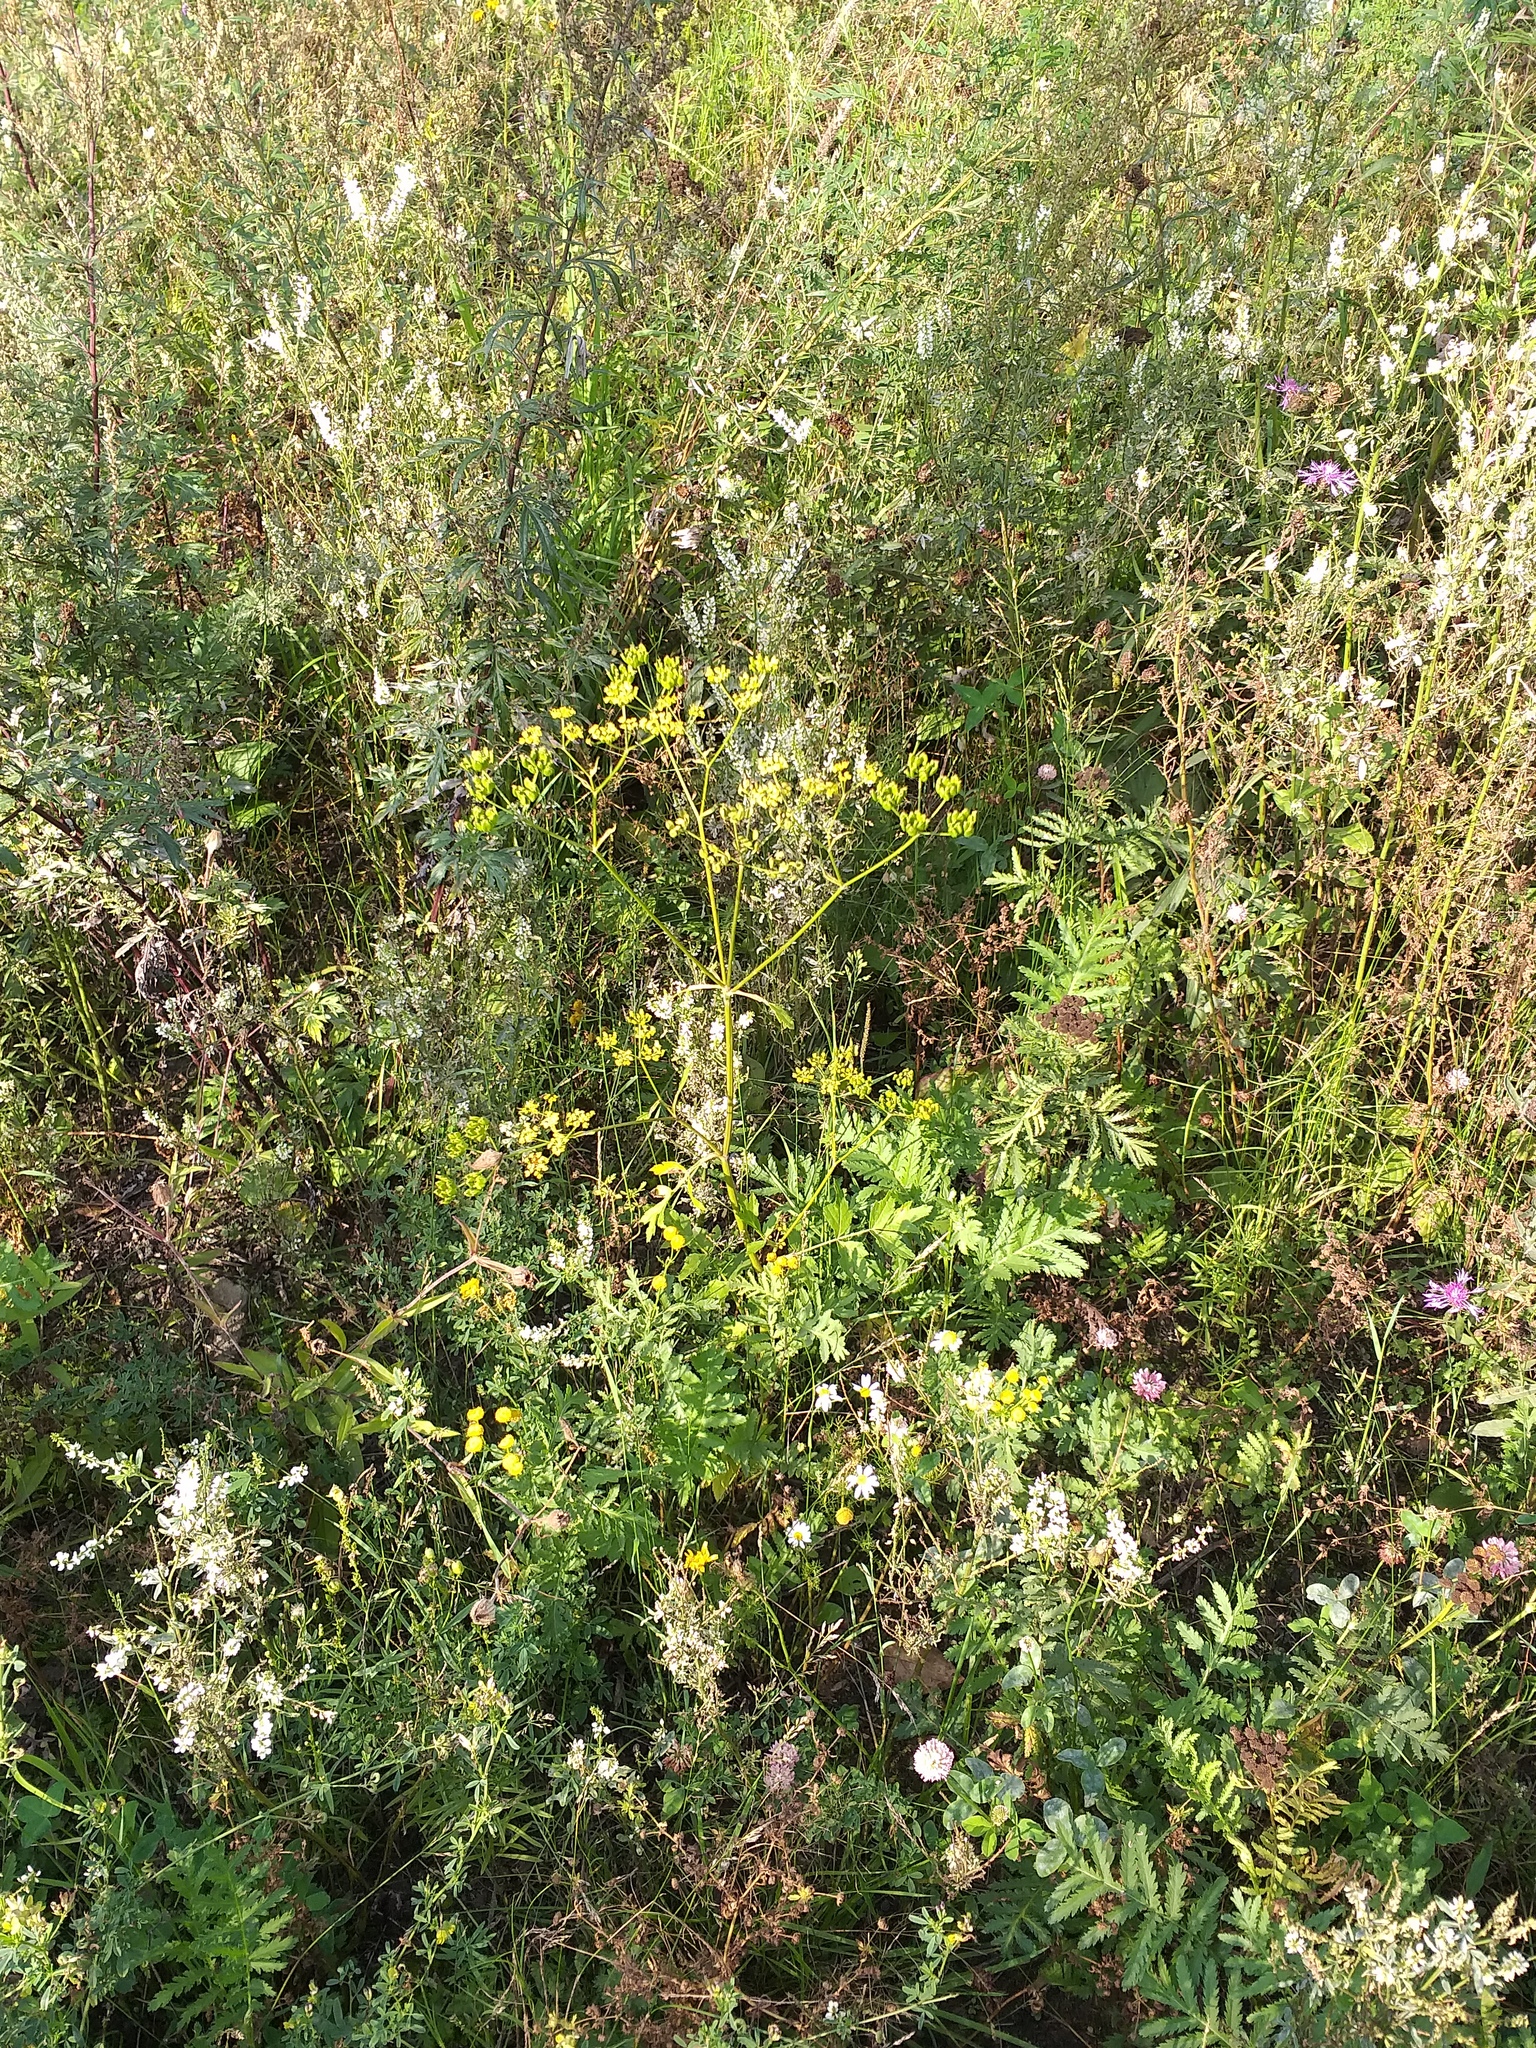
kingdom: Plantae
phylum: Tracheophyta
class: Magnoliopsida
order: Apiales
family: Apiaceae
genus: Pastinaca
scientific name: Pastinaca sativa
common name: Wild parsnip
